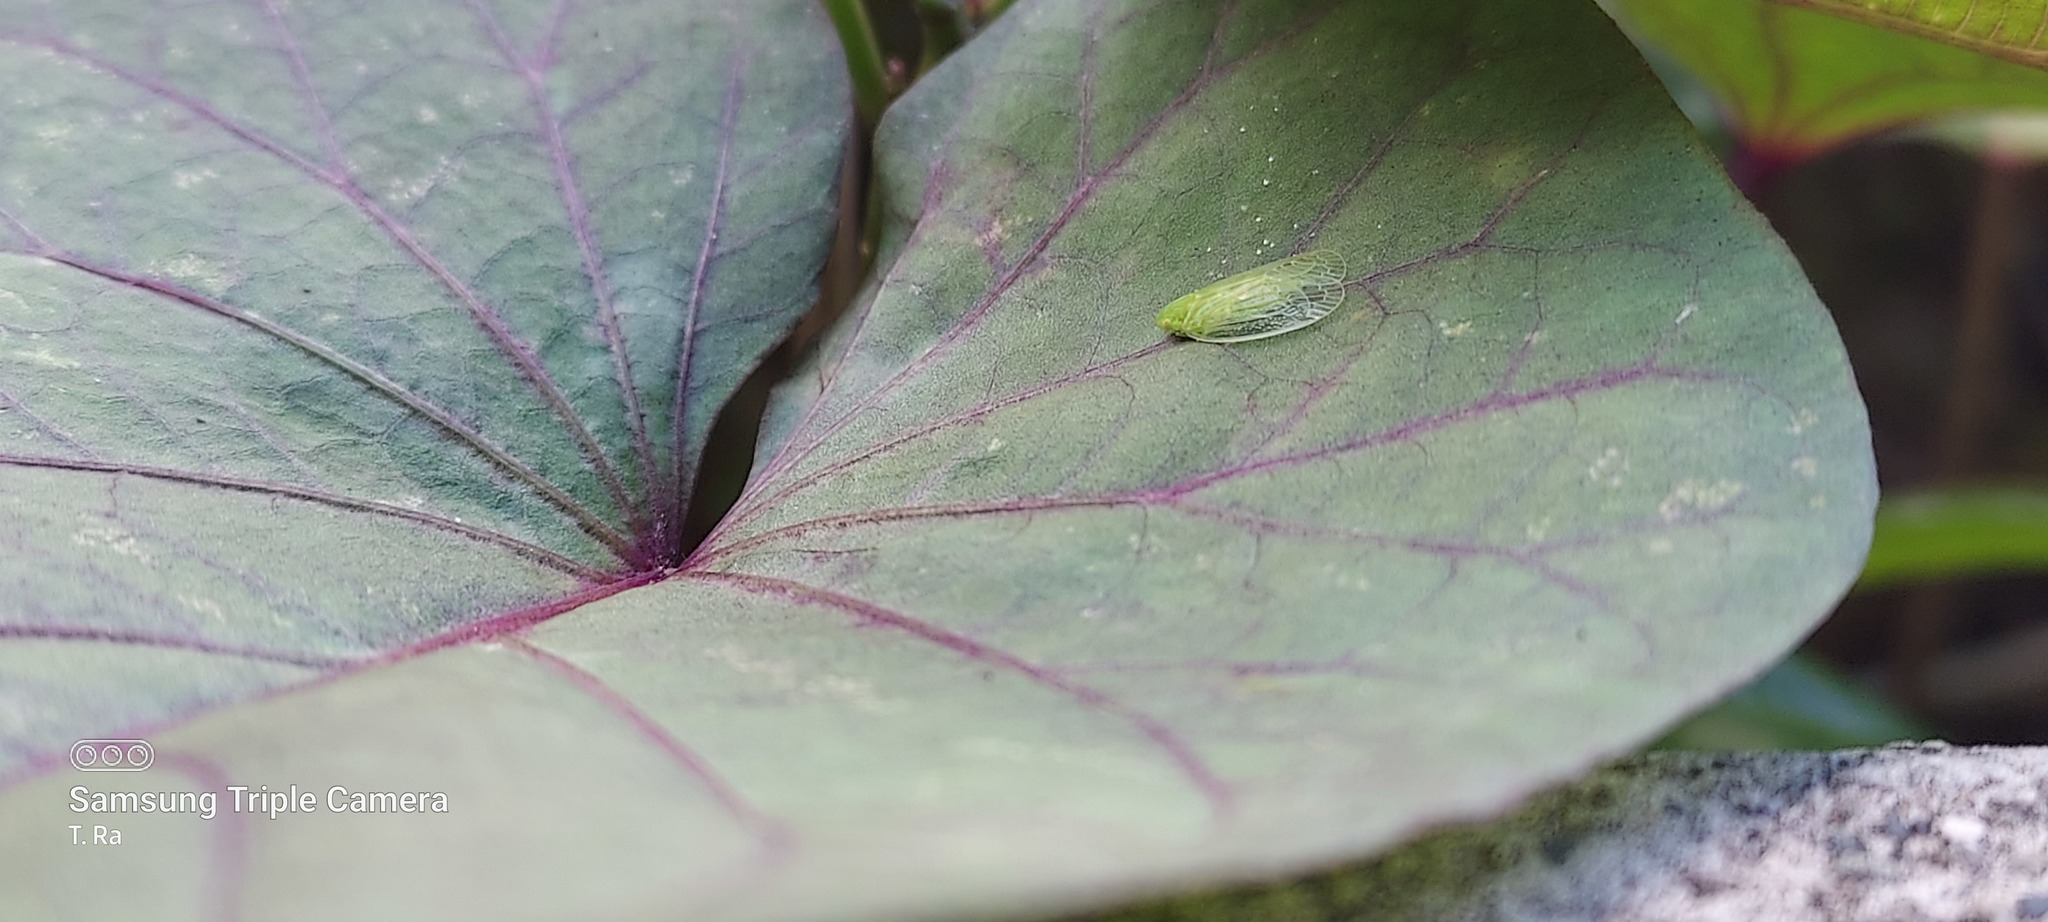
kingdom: Animalia
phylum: Arthropoda
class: Insecta
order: Hemiptera
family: Tropiduchidae
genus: Kallitaxila
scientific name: Kallitaxila granulata
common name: Planthopper
